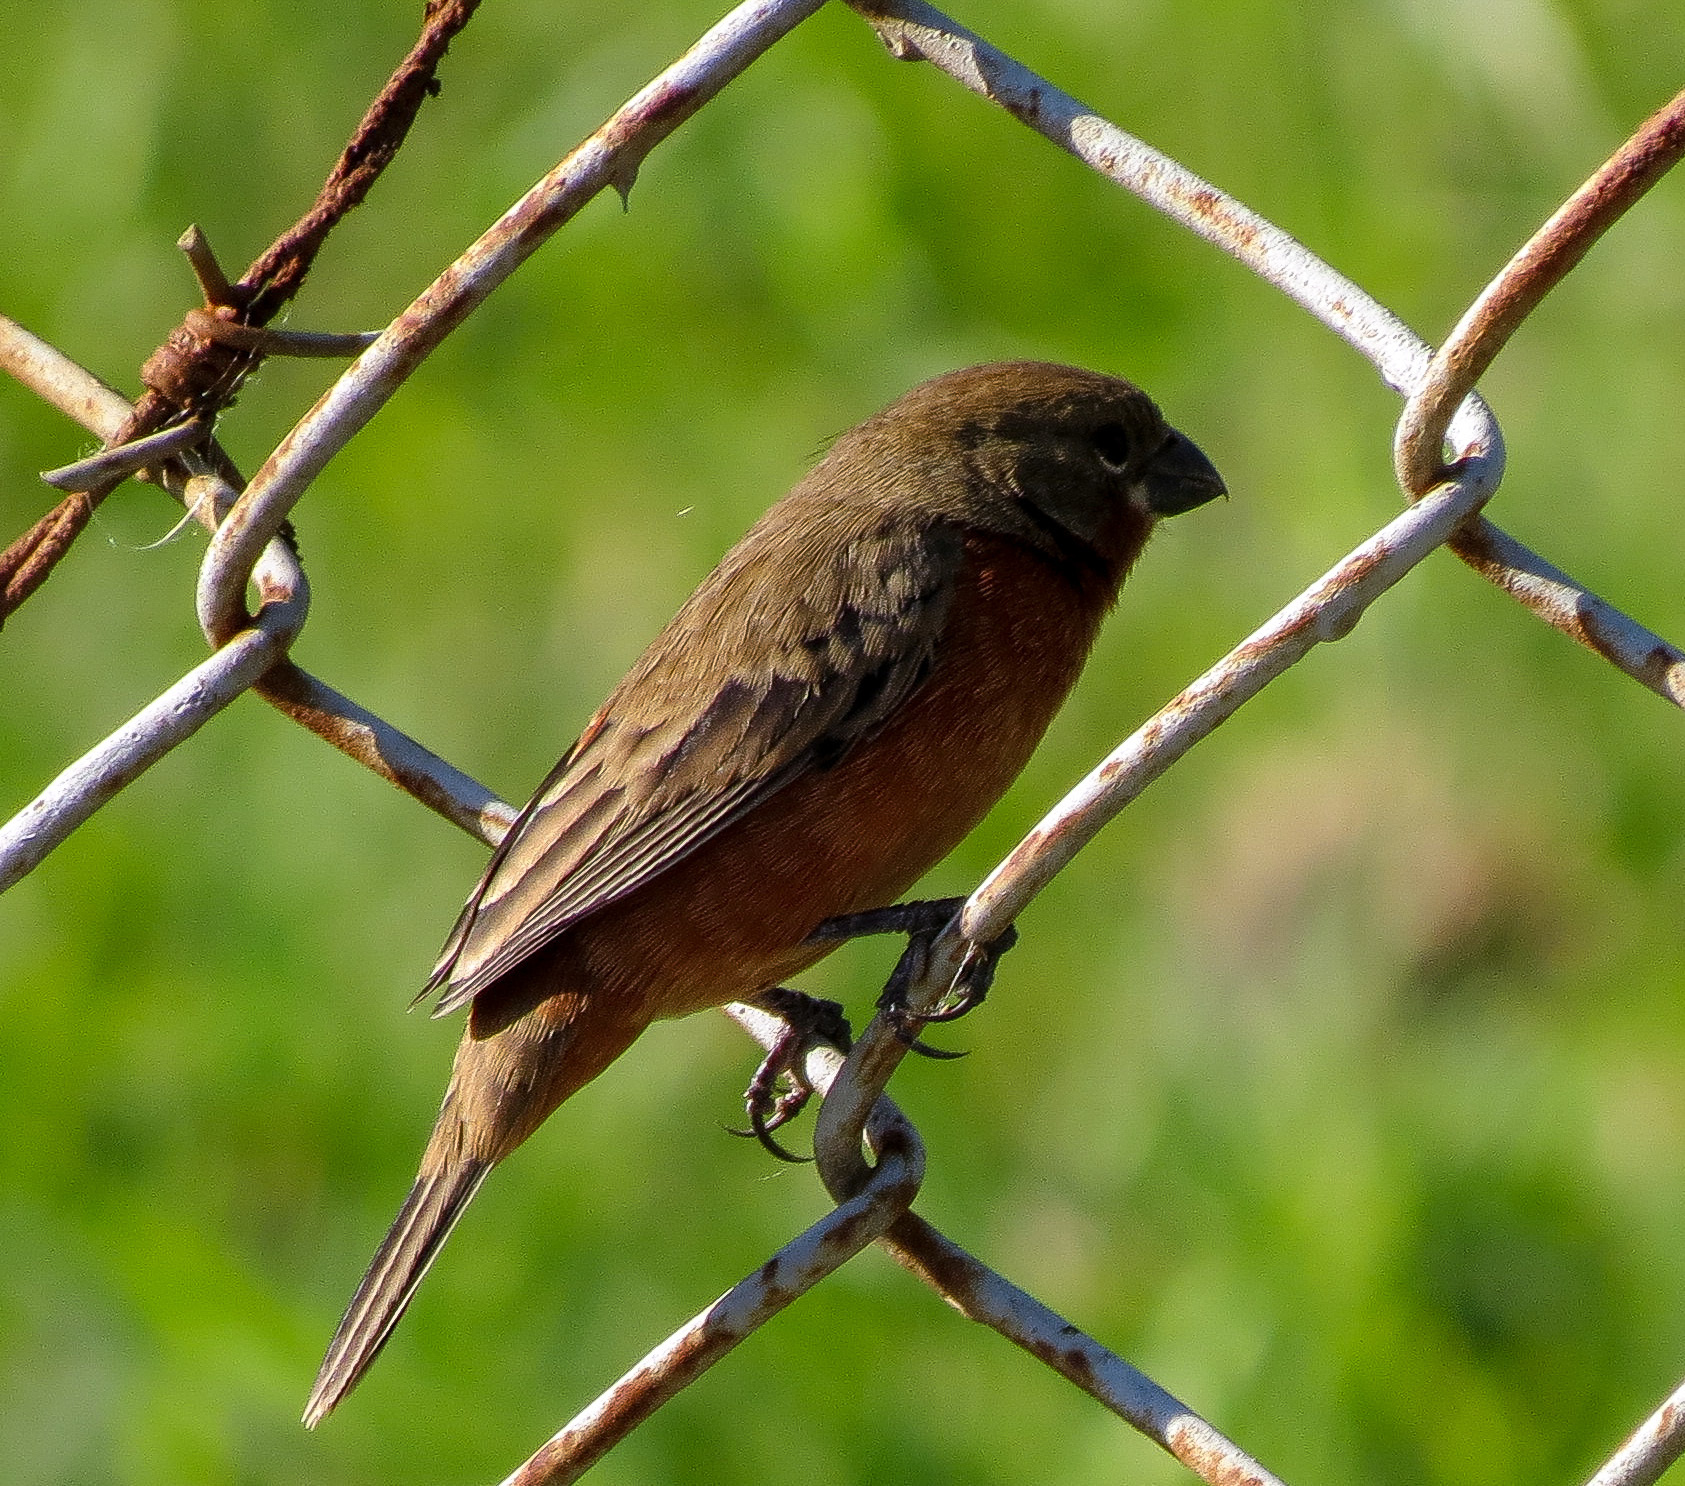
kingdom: Animalia
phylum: Chordata
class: Aves
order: Passeriformes
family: Thraupidae
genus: Sporophila
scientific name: Sporophila minuta
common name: Ruddy-breasted seedeater
